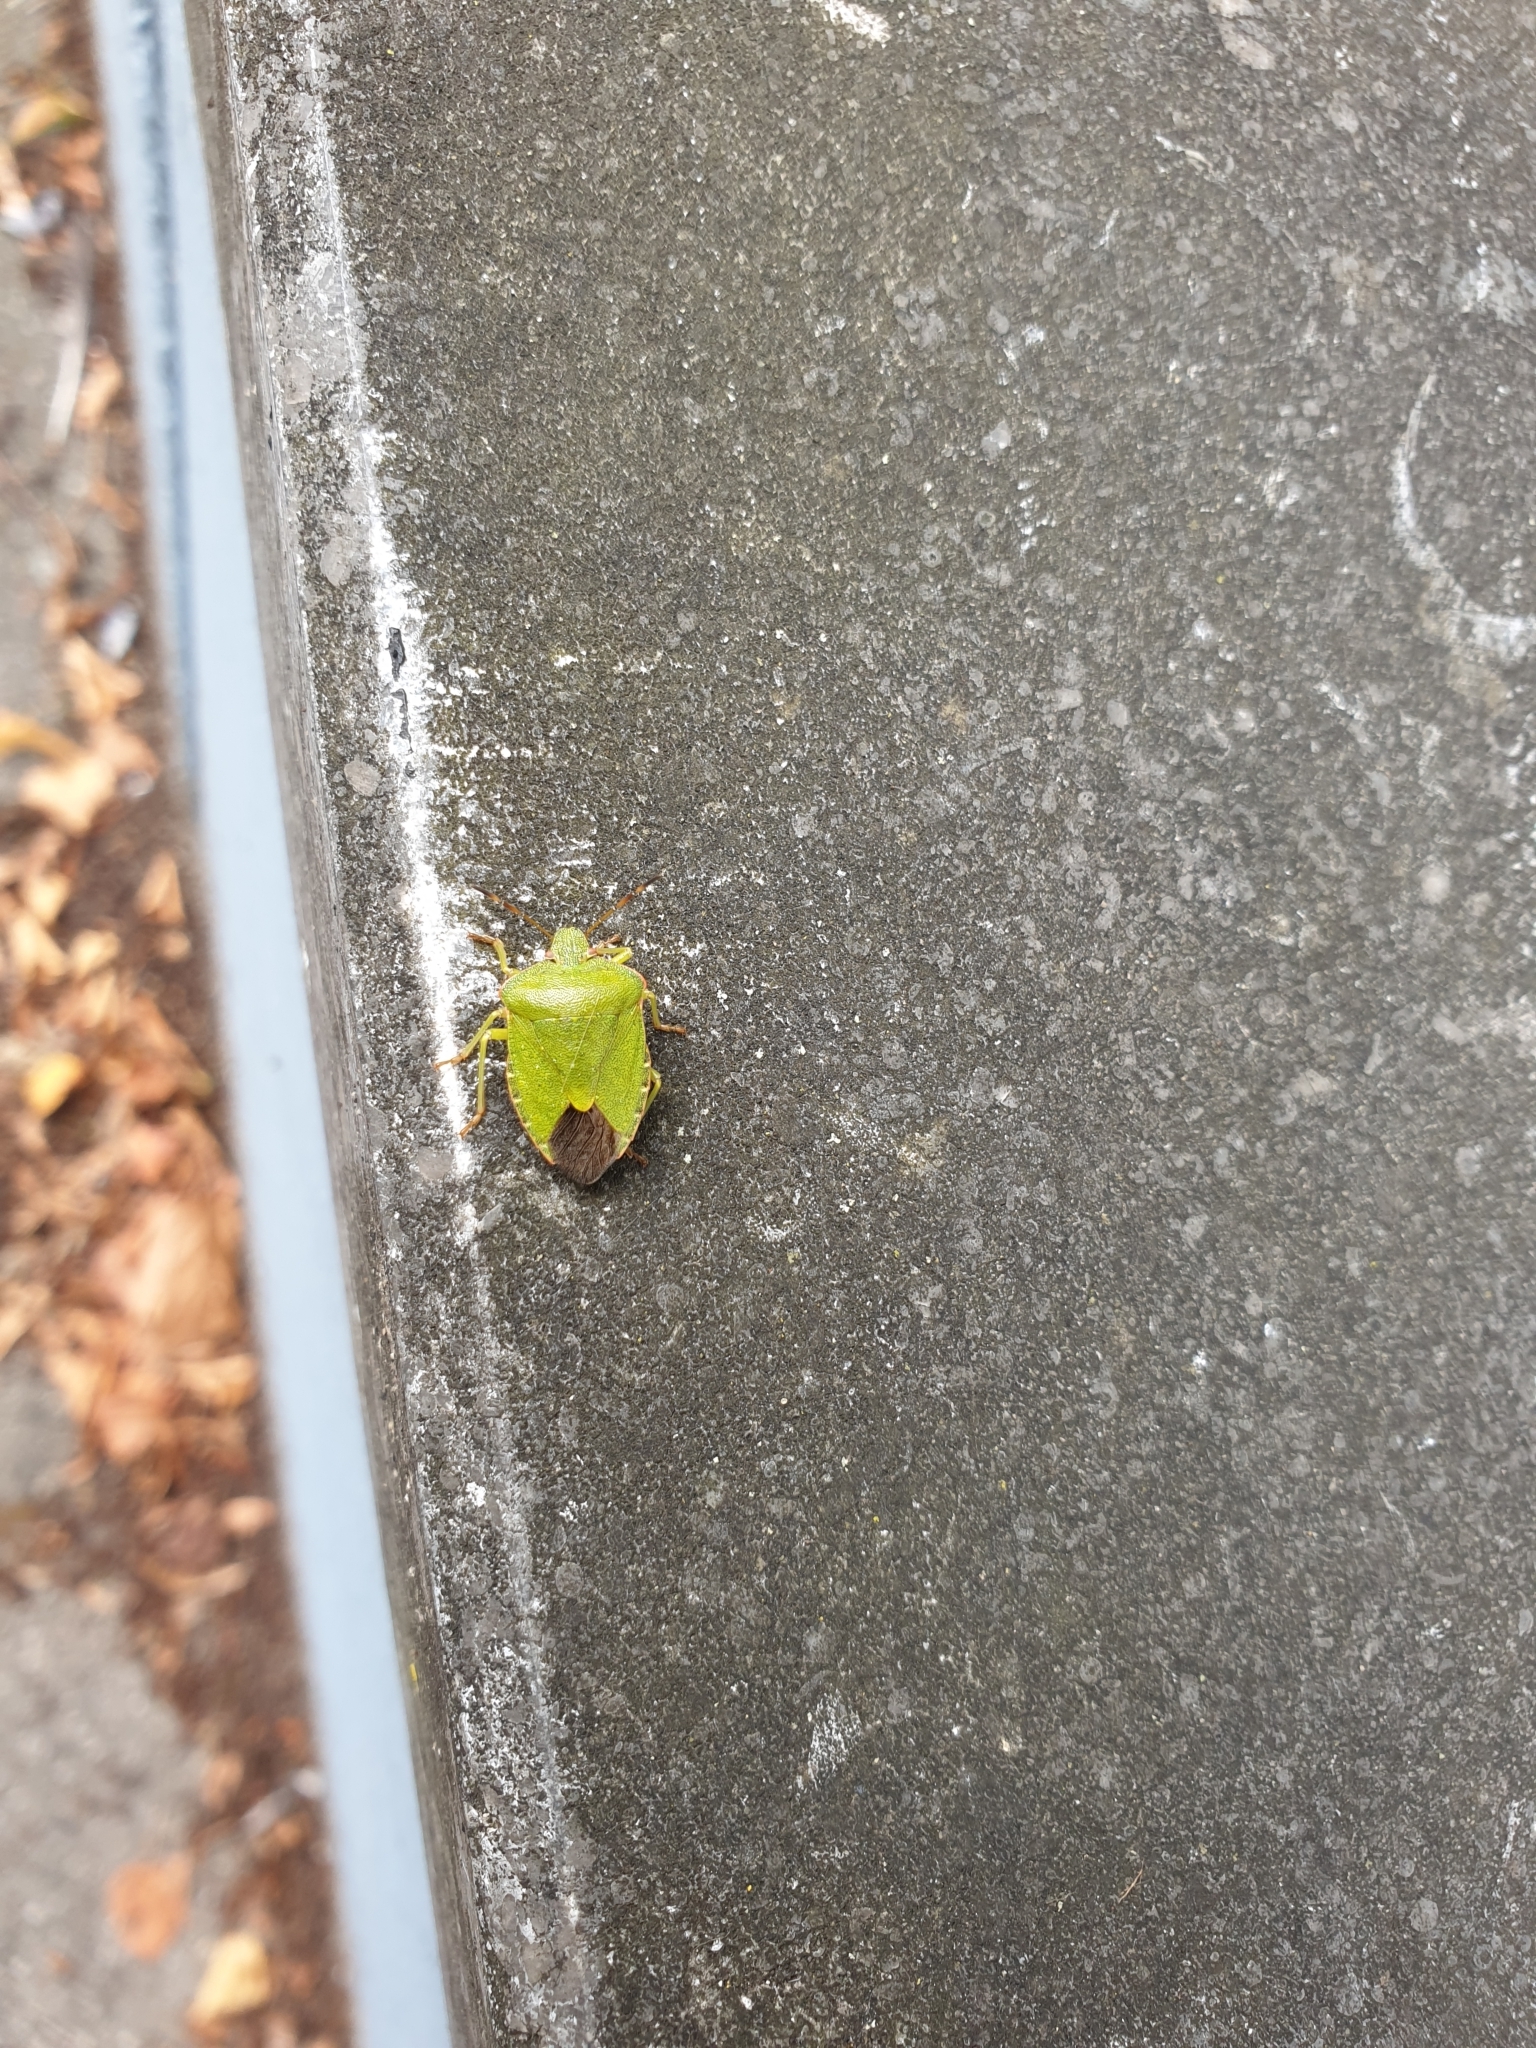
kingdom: Animalia
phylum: Arthropoda
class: Insecta
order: Hemiptera
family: Pentatomidae
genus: Palomena
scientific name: Palomena prasina
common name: Green shieldbug
